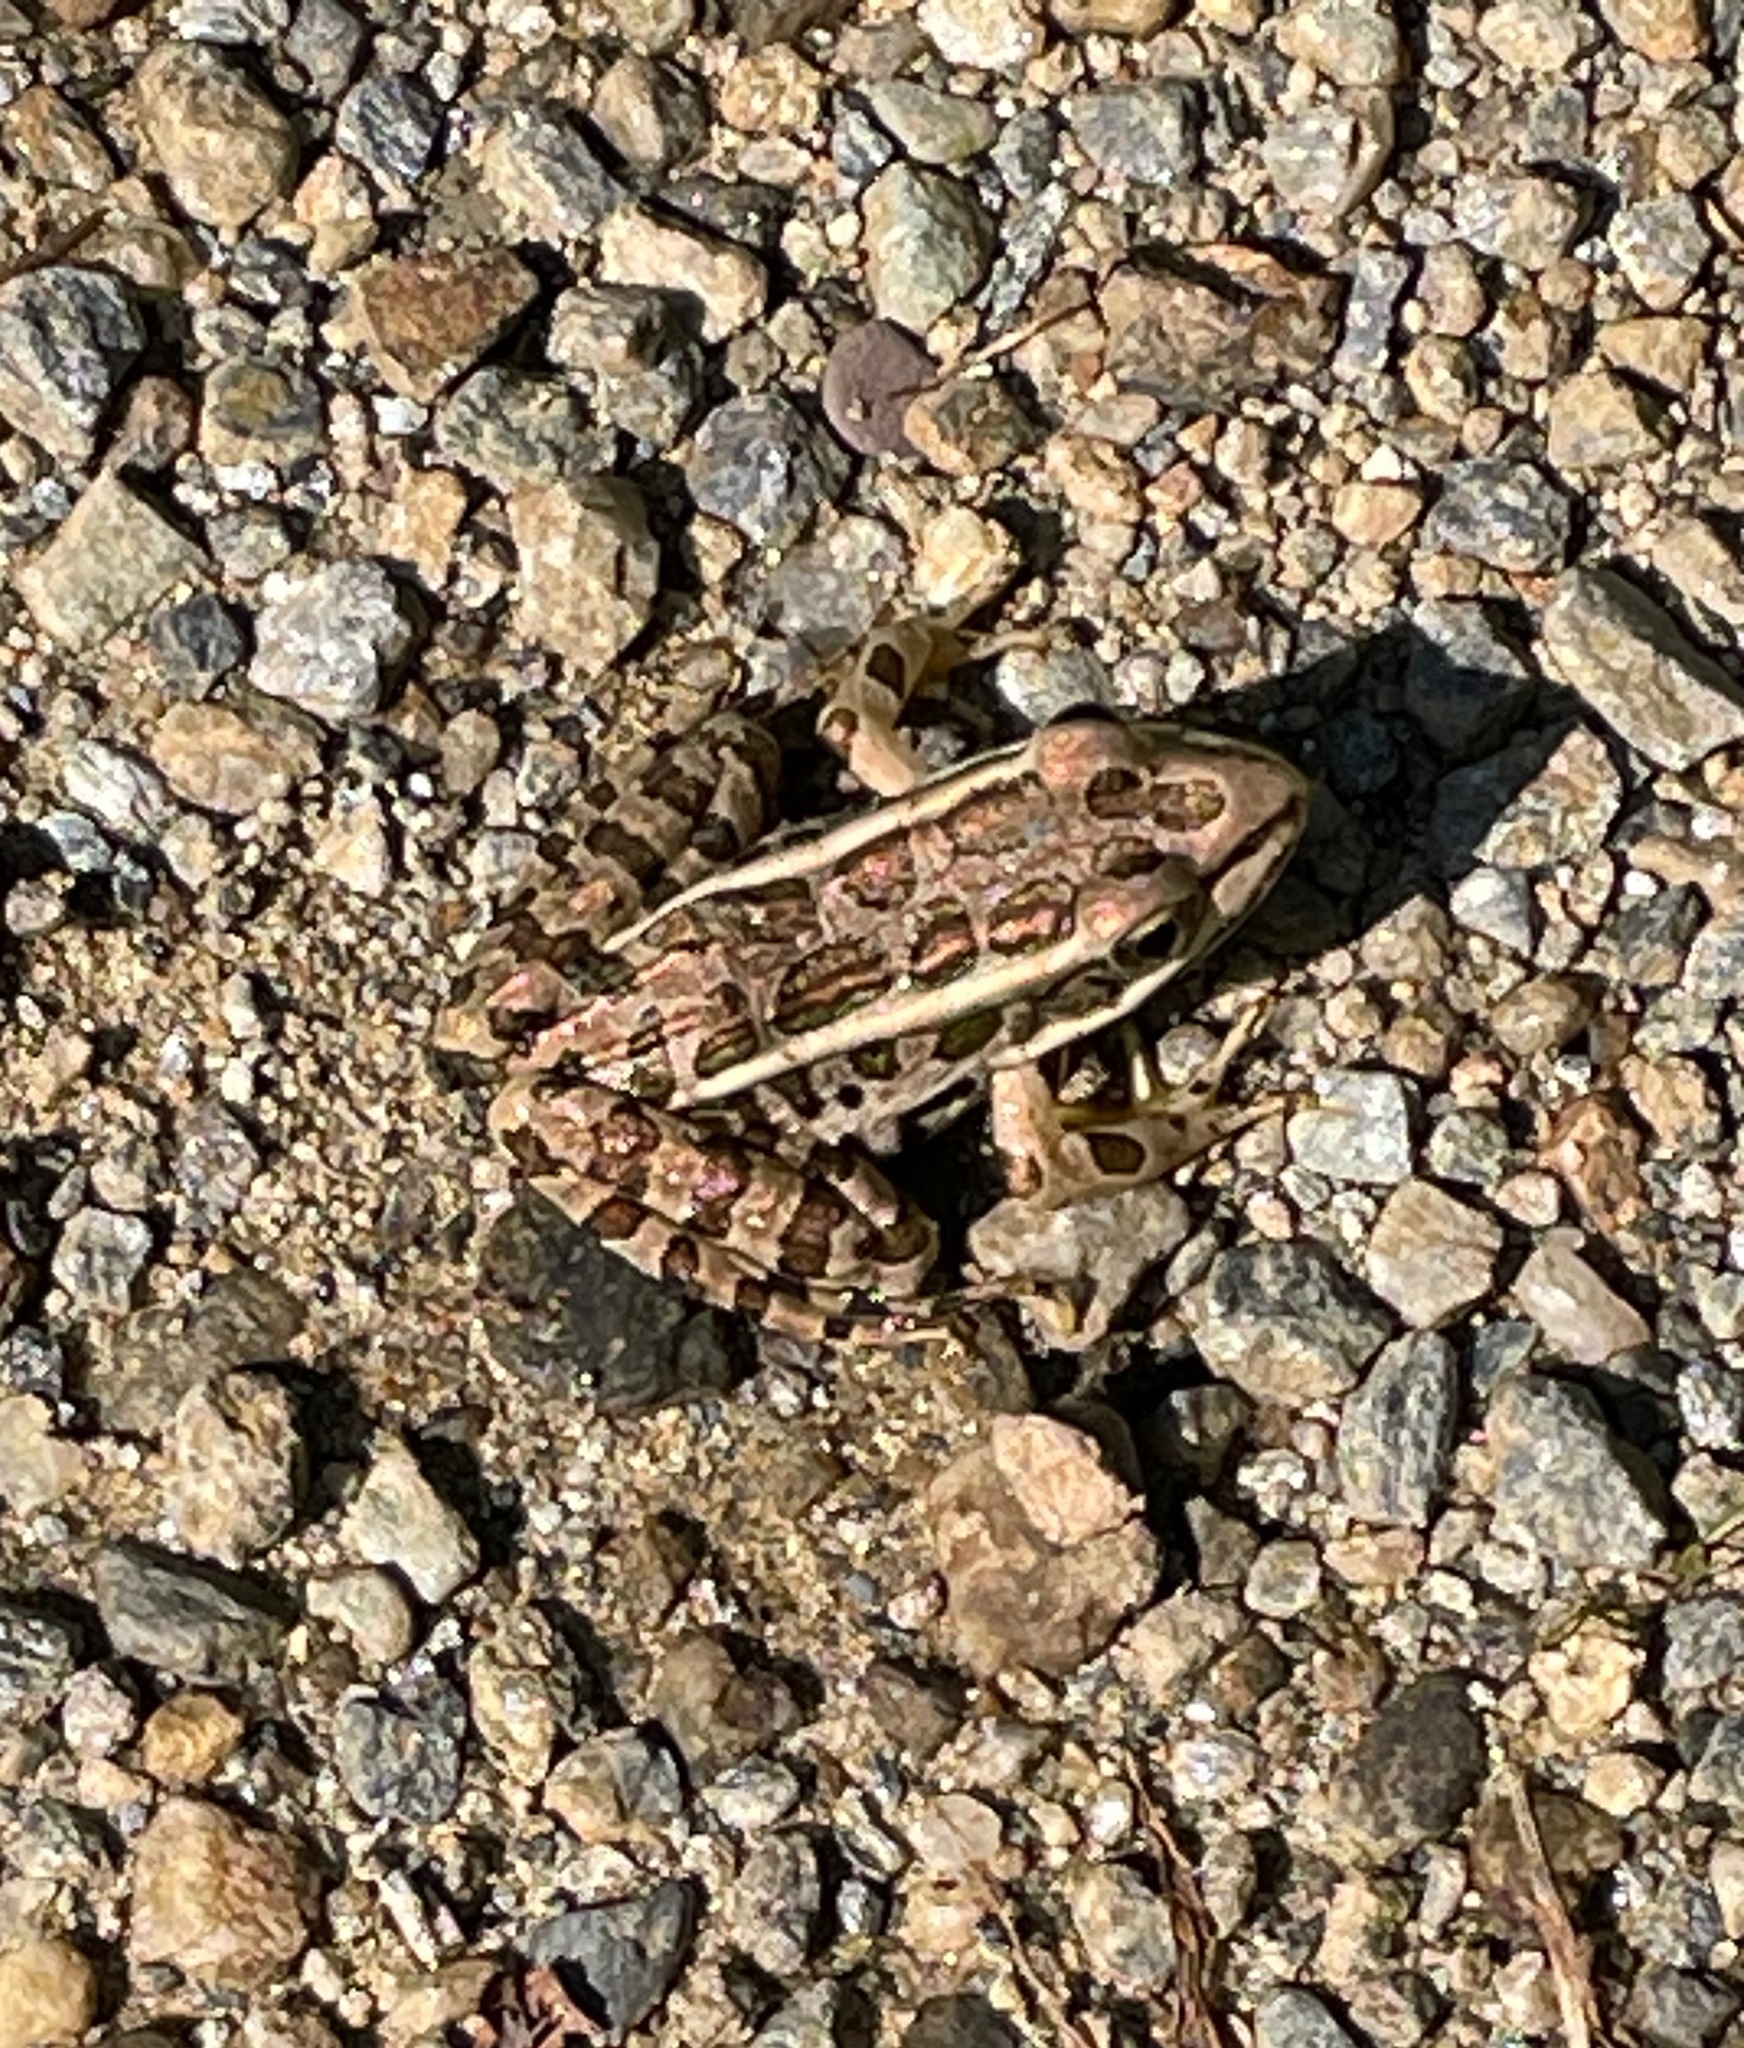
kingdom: Animalia
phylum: Chordata
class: Amphibia
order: Anura
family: Ranidae
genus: Lithobates
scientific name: Lithobates palustris
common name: Pickerel frog
